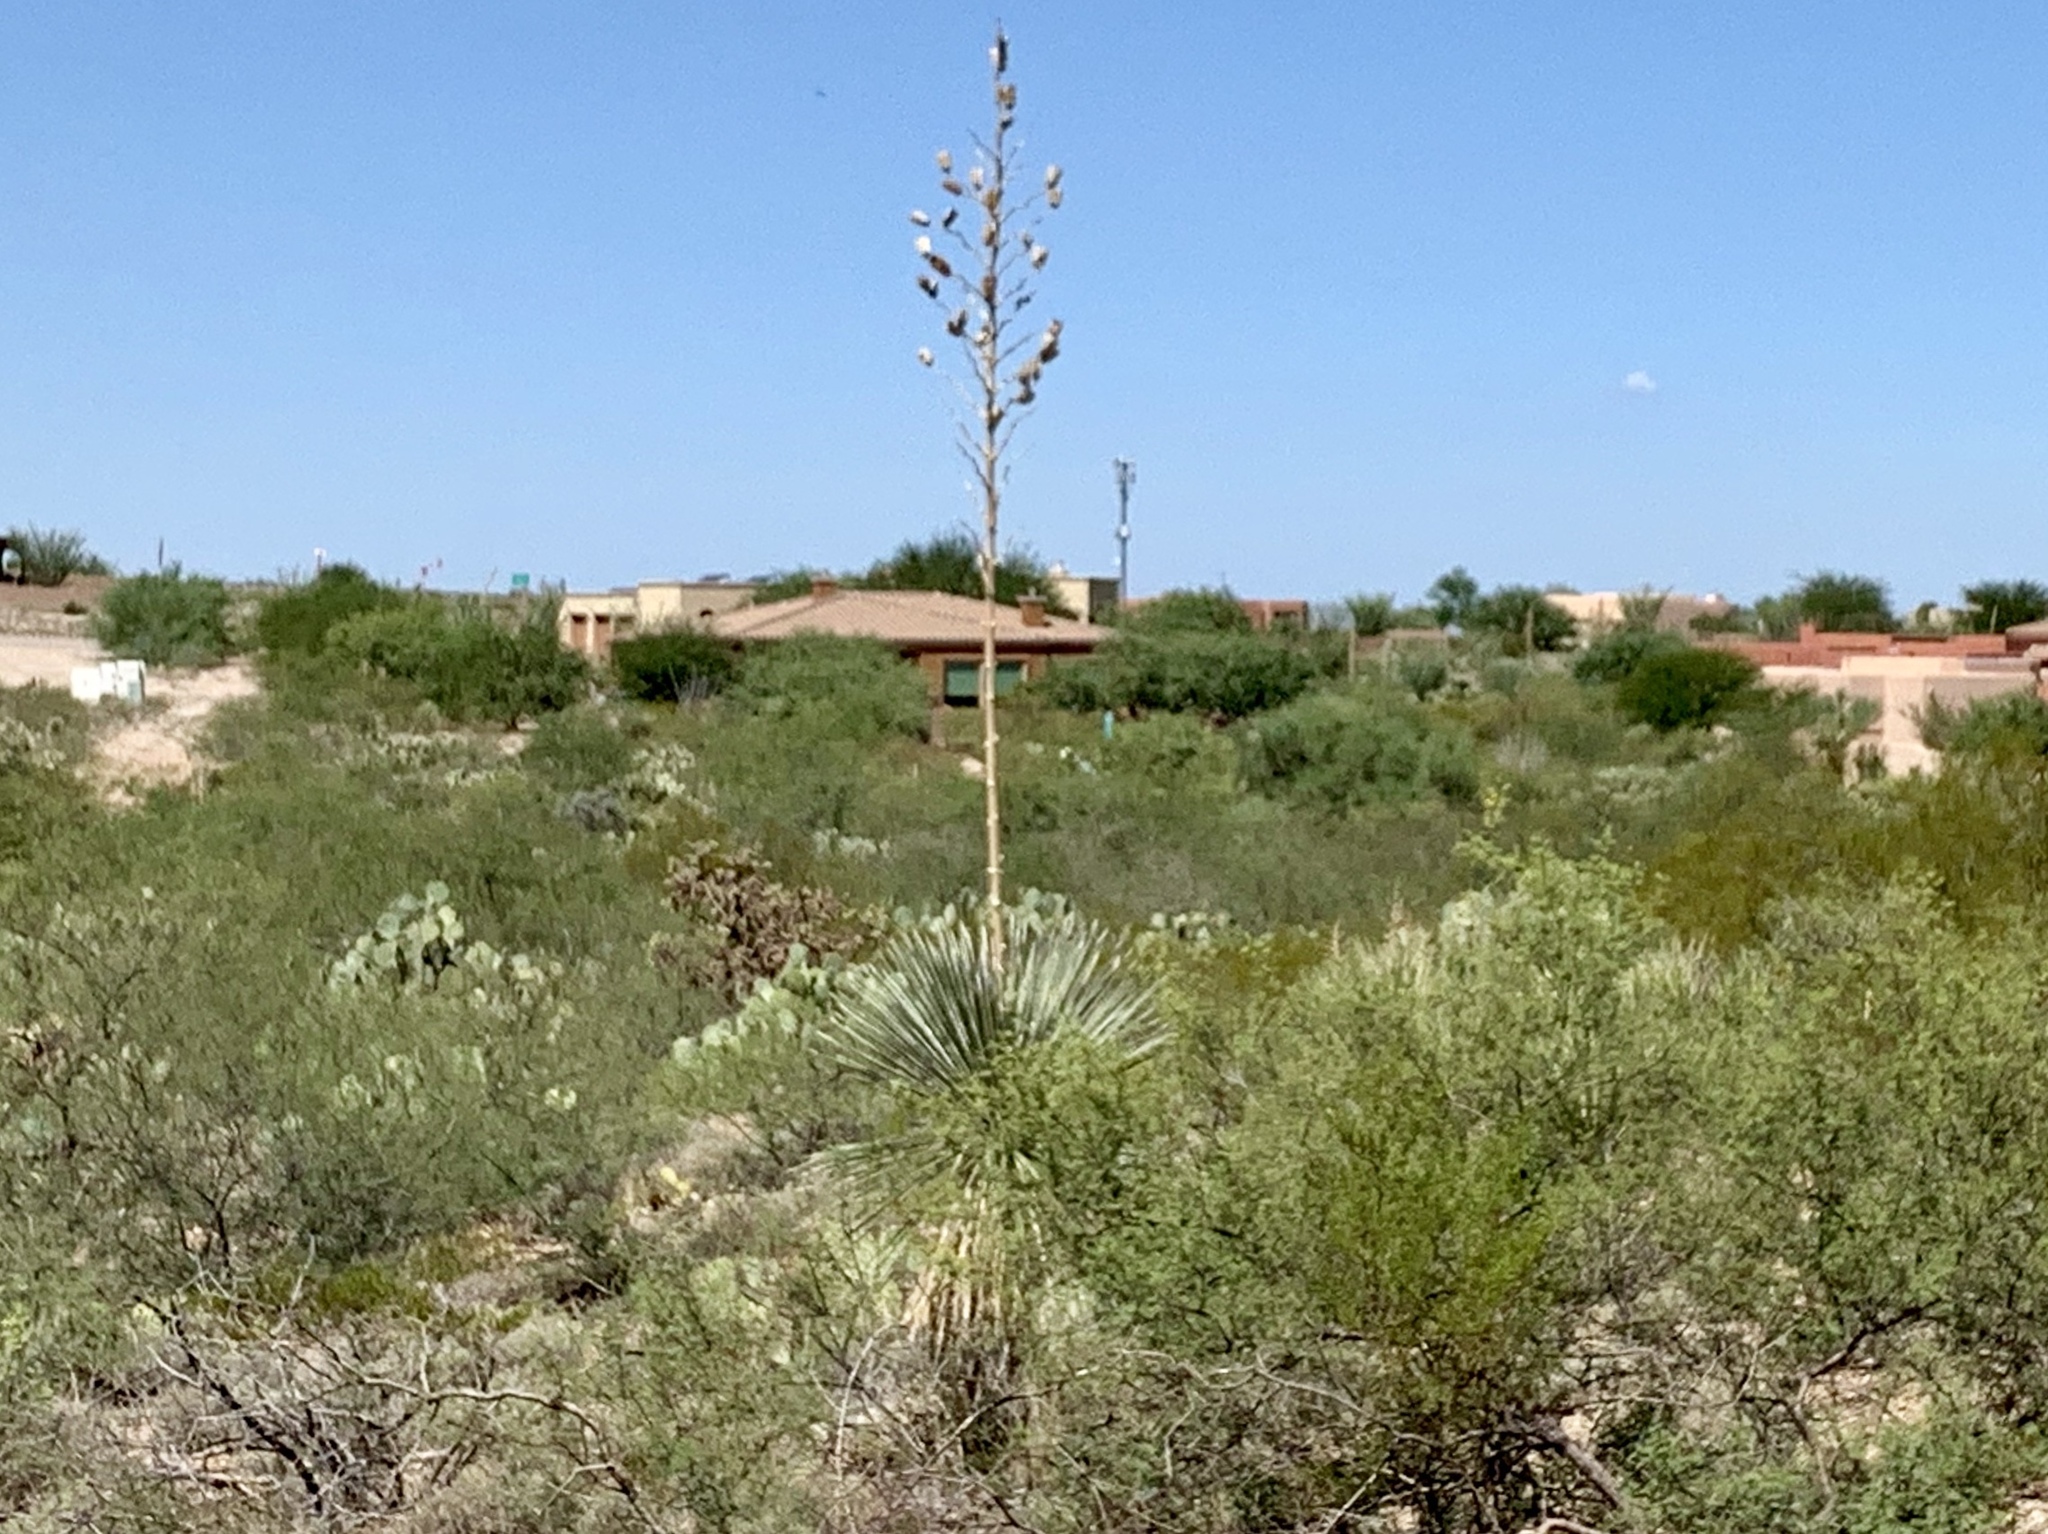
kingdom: Plantae
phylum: Tracheophyta
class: Liliopsida
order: Asparagales
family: Asparagaceae
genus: Yucca
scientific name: Yucca elata
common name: Palmella
